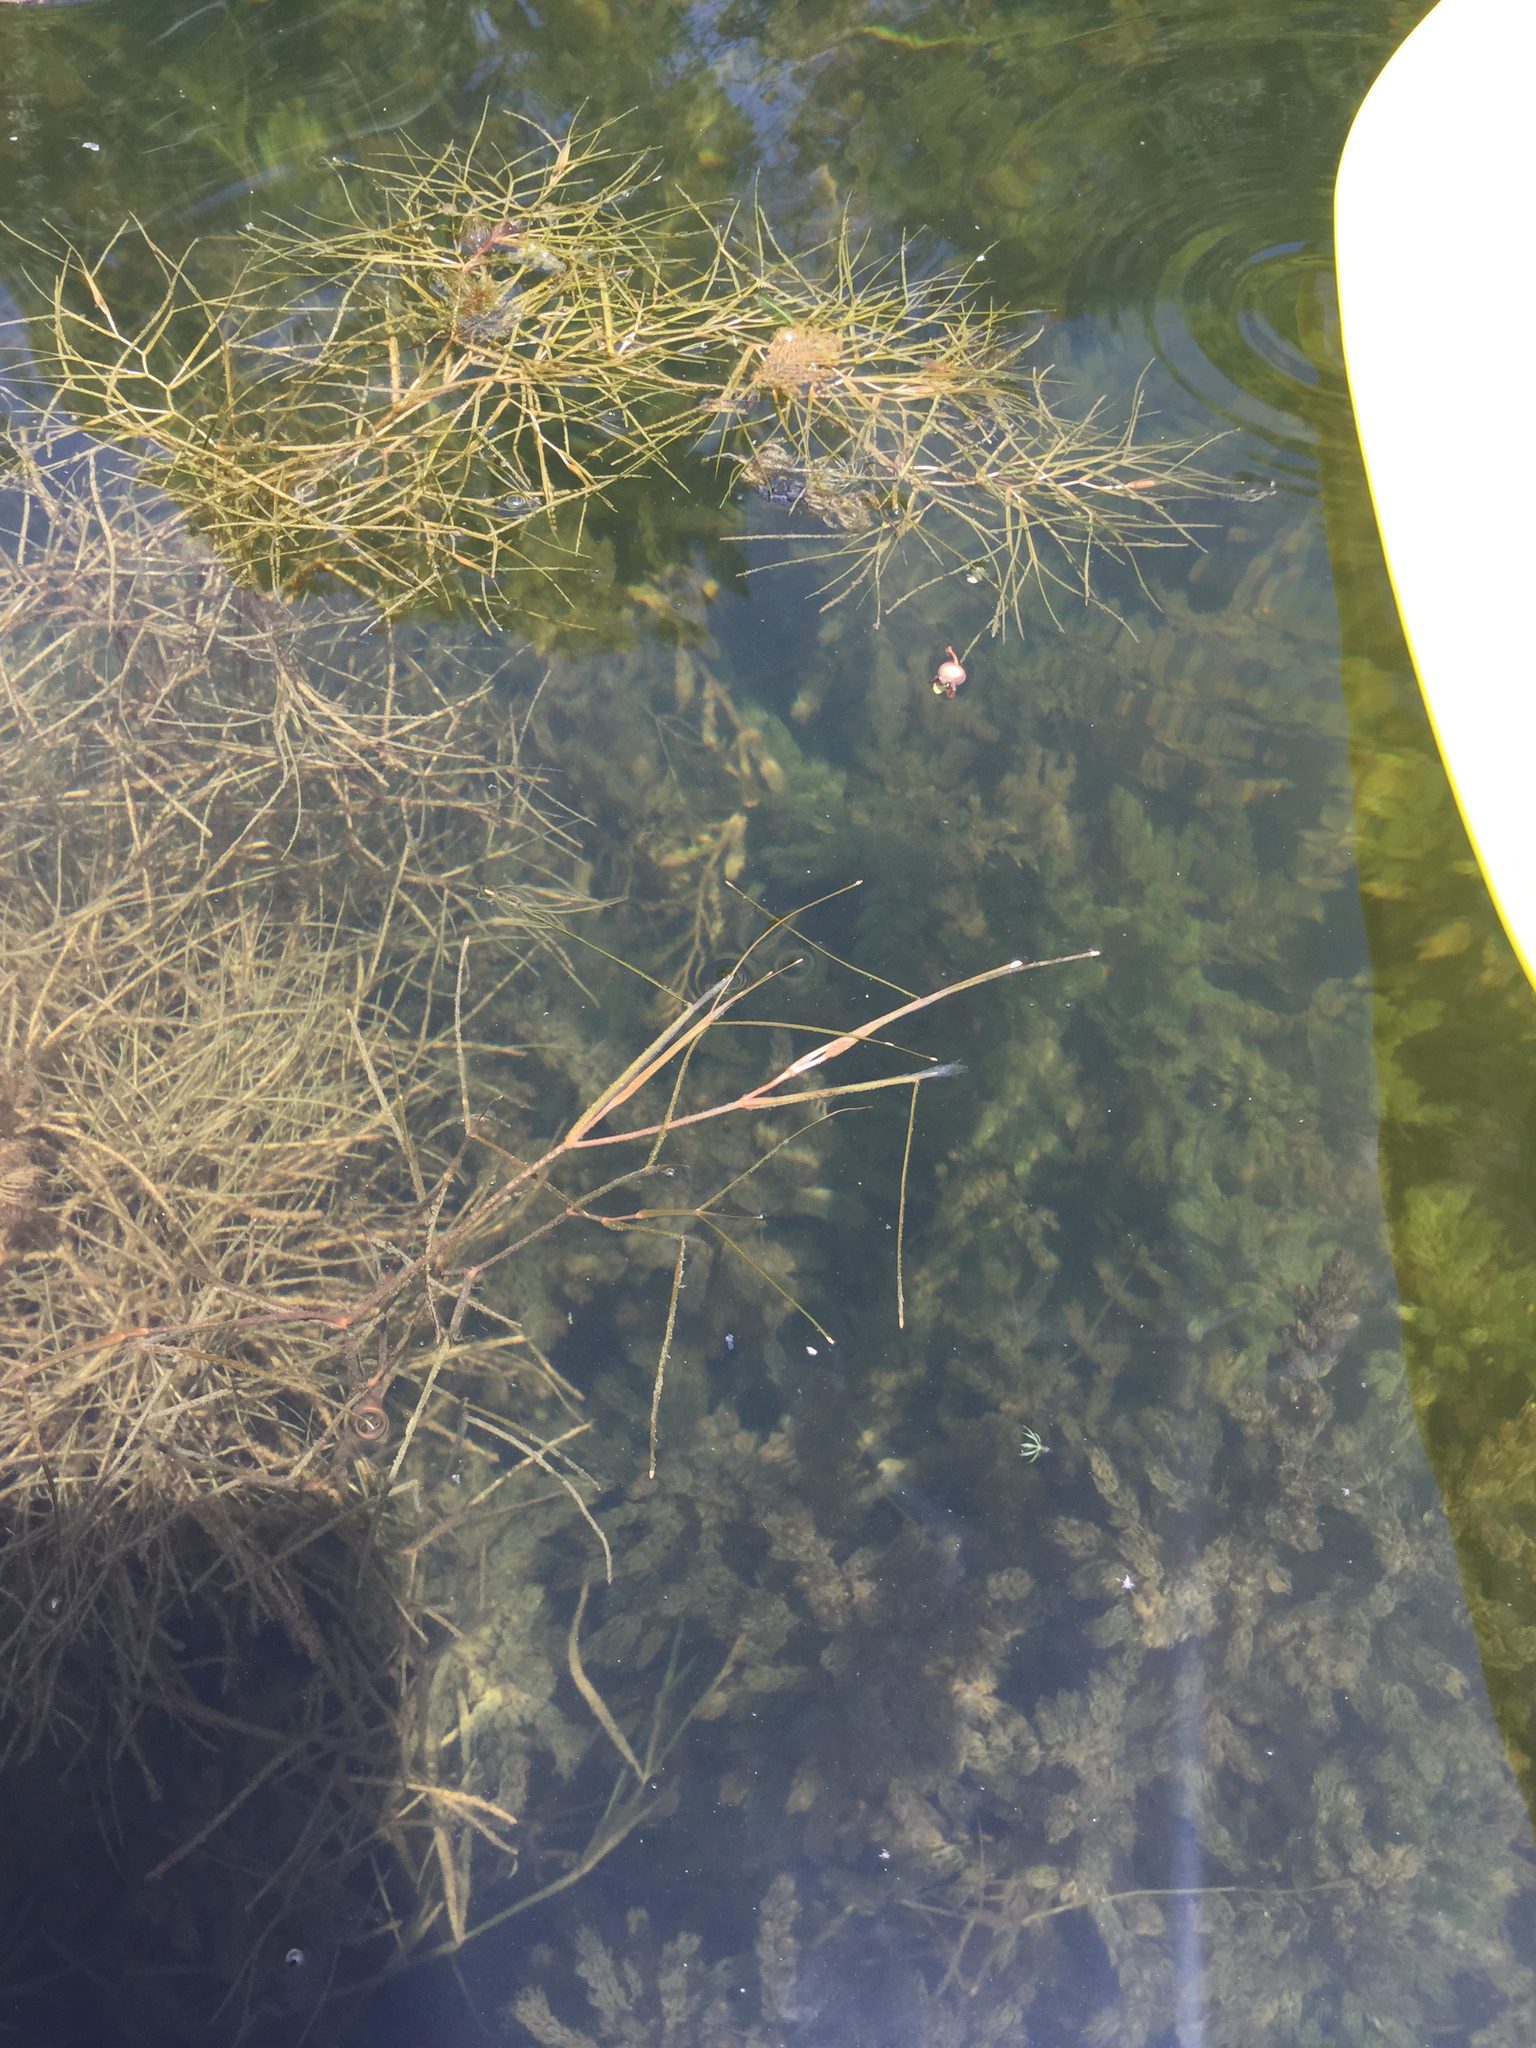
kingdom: Plantae
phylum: Tracheophyta
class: Liliopsida
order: Alismatales
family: Potamogetonaceae
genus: Stuckenia
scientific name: Stuckenia pectinata
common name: Sago pondweed
